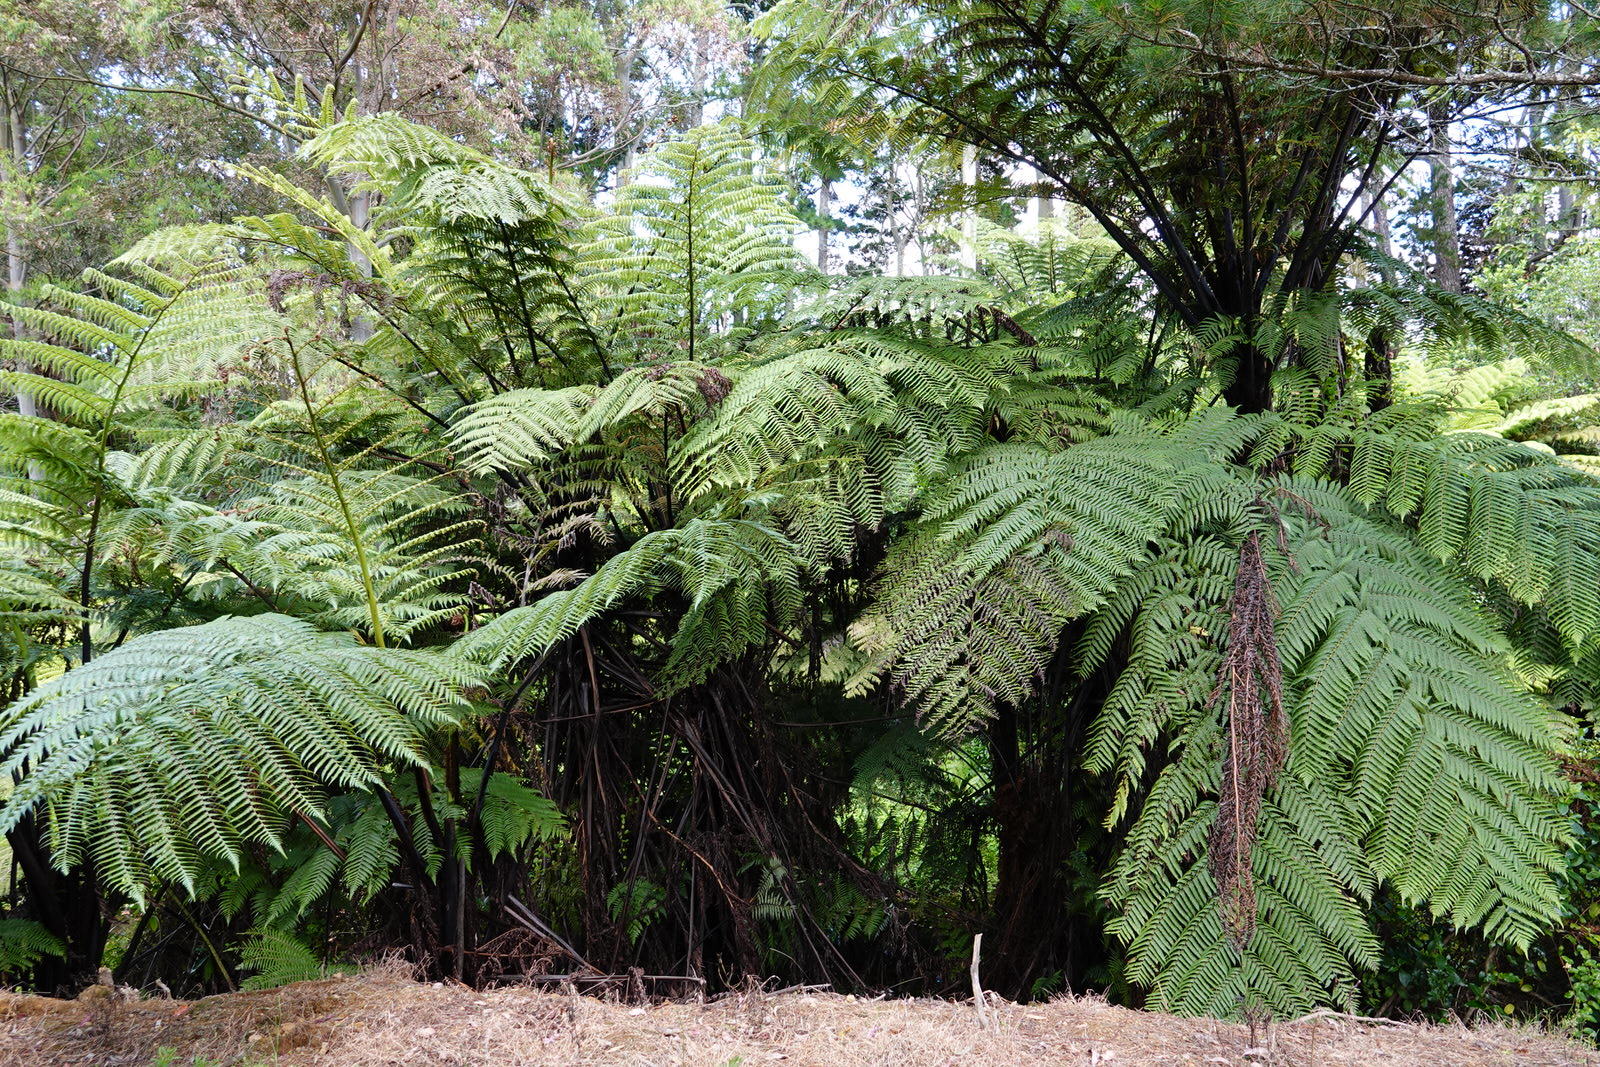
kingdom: Plantae
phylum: Tracheophyta
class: Polypodiopsida
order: Cyatheales
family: Cyatheaceae
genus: Sphaeropteris
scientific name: Sphaeropteris medullaris
